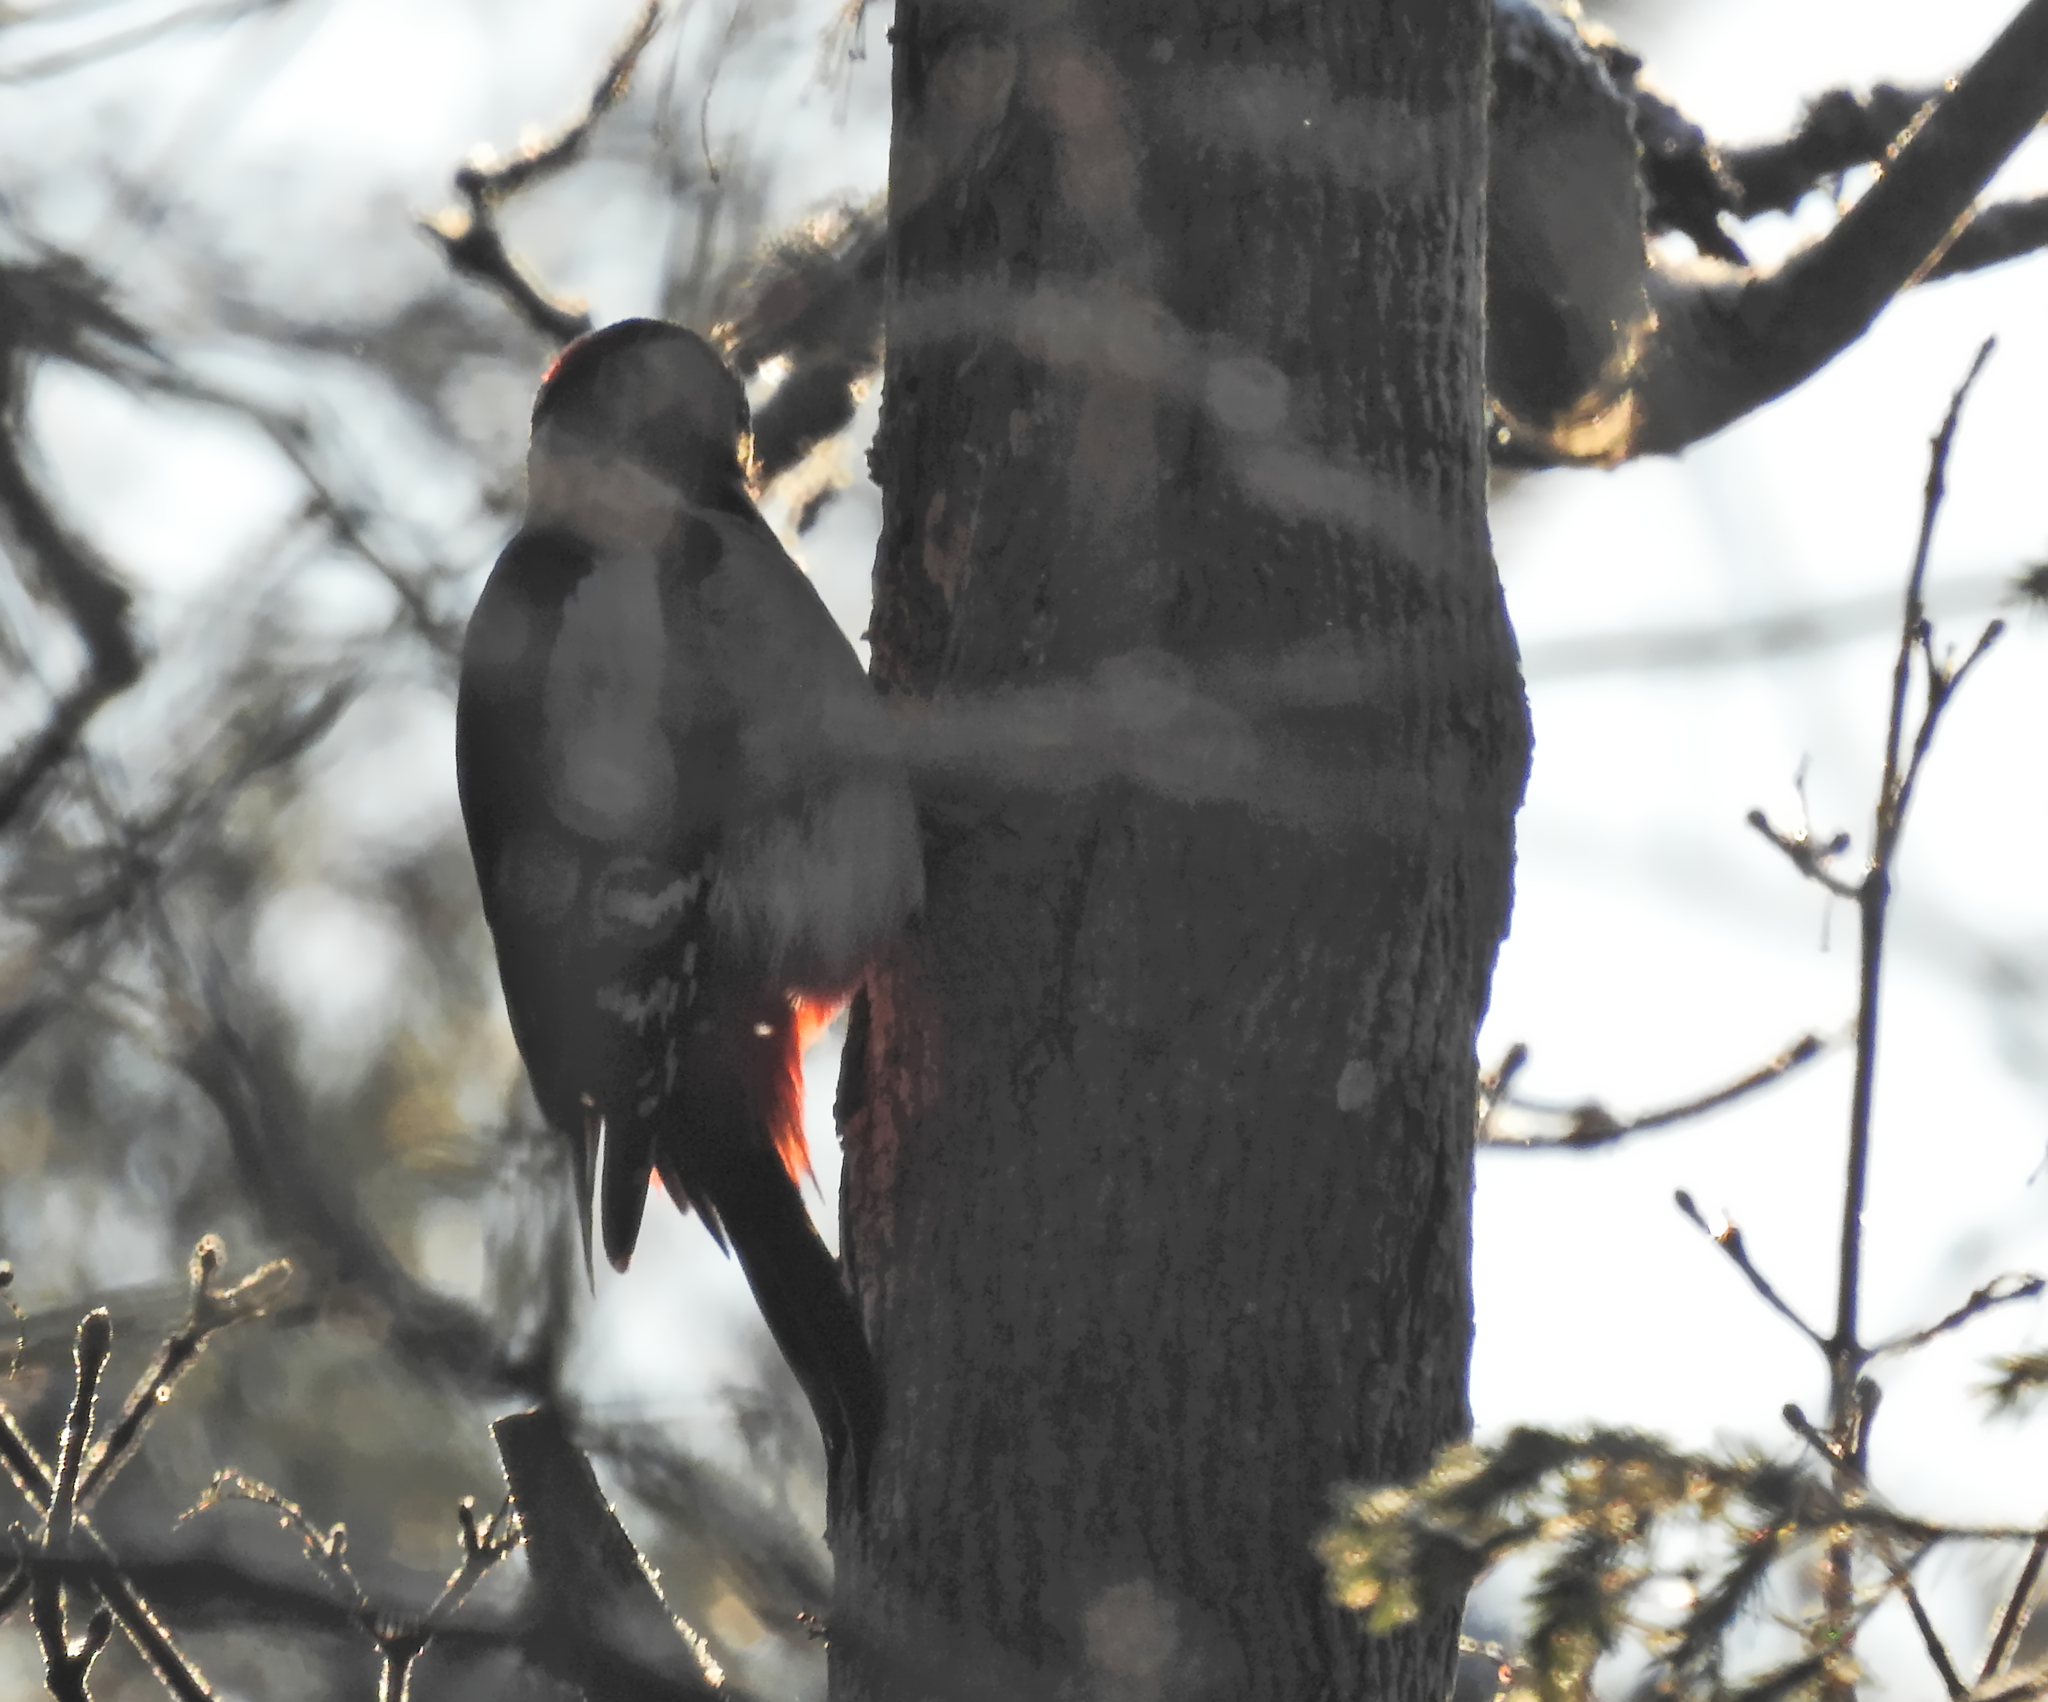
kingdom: Animalia
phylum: Chordata
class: Aves
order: Piciformes
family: Picidae
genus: Dendrocopos
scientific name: Dendrocopos major
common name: Great spotted woodpecker
